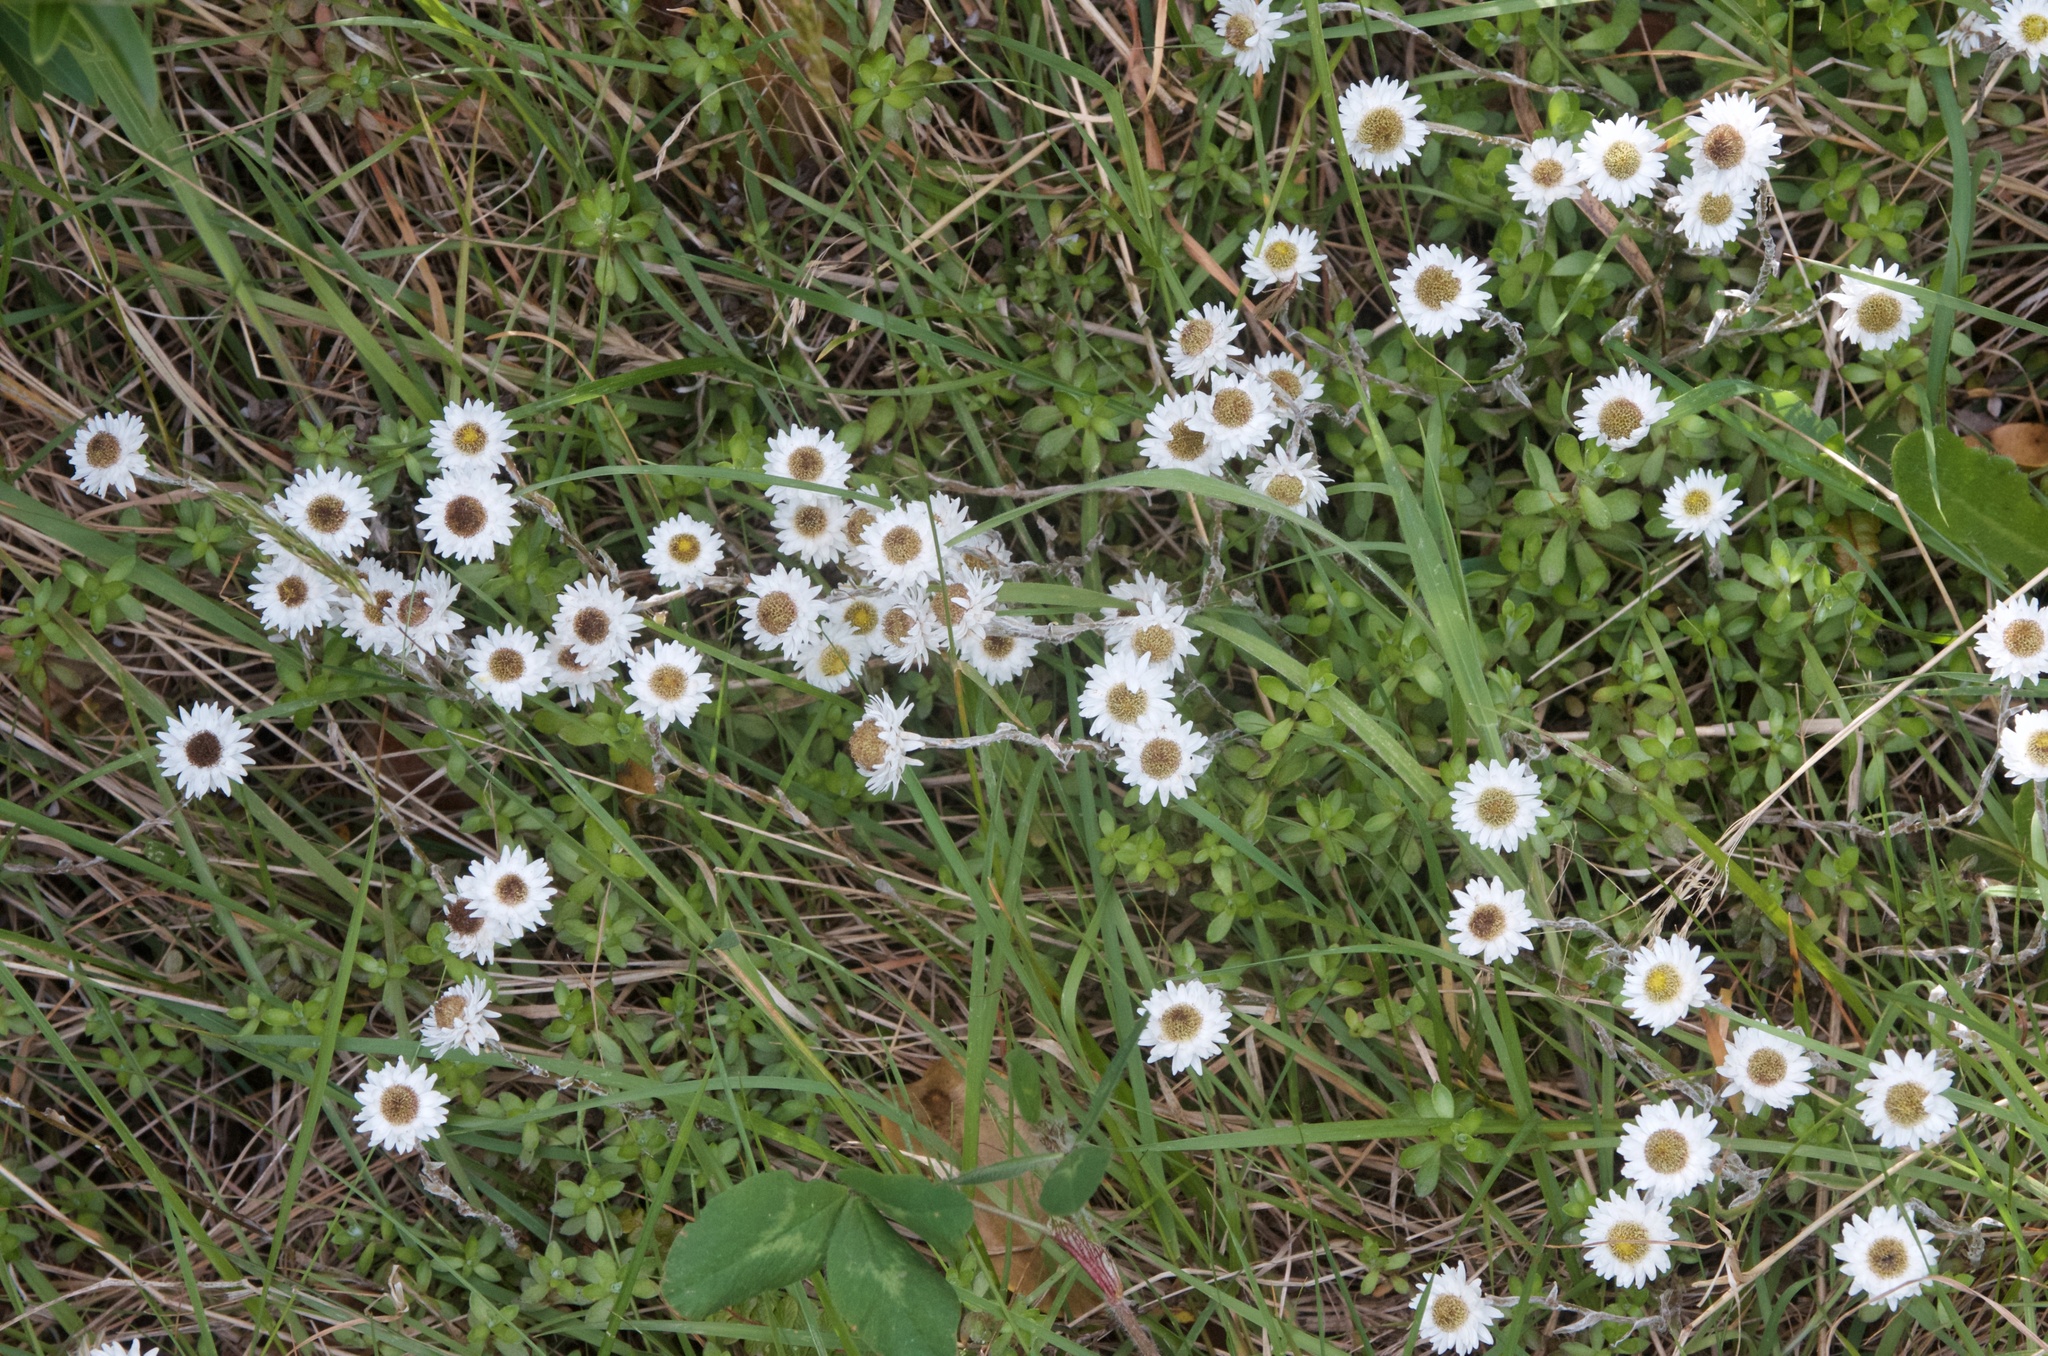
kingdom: Plantae
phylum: Tracheophyta
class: Magnoliopsida
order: Asterales
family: Asteraceae
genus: Anaphalioides
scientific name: Anaphalioides bellidioides
